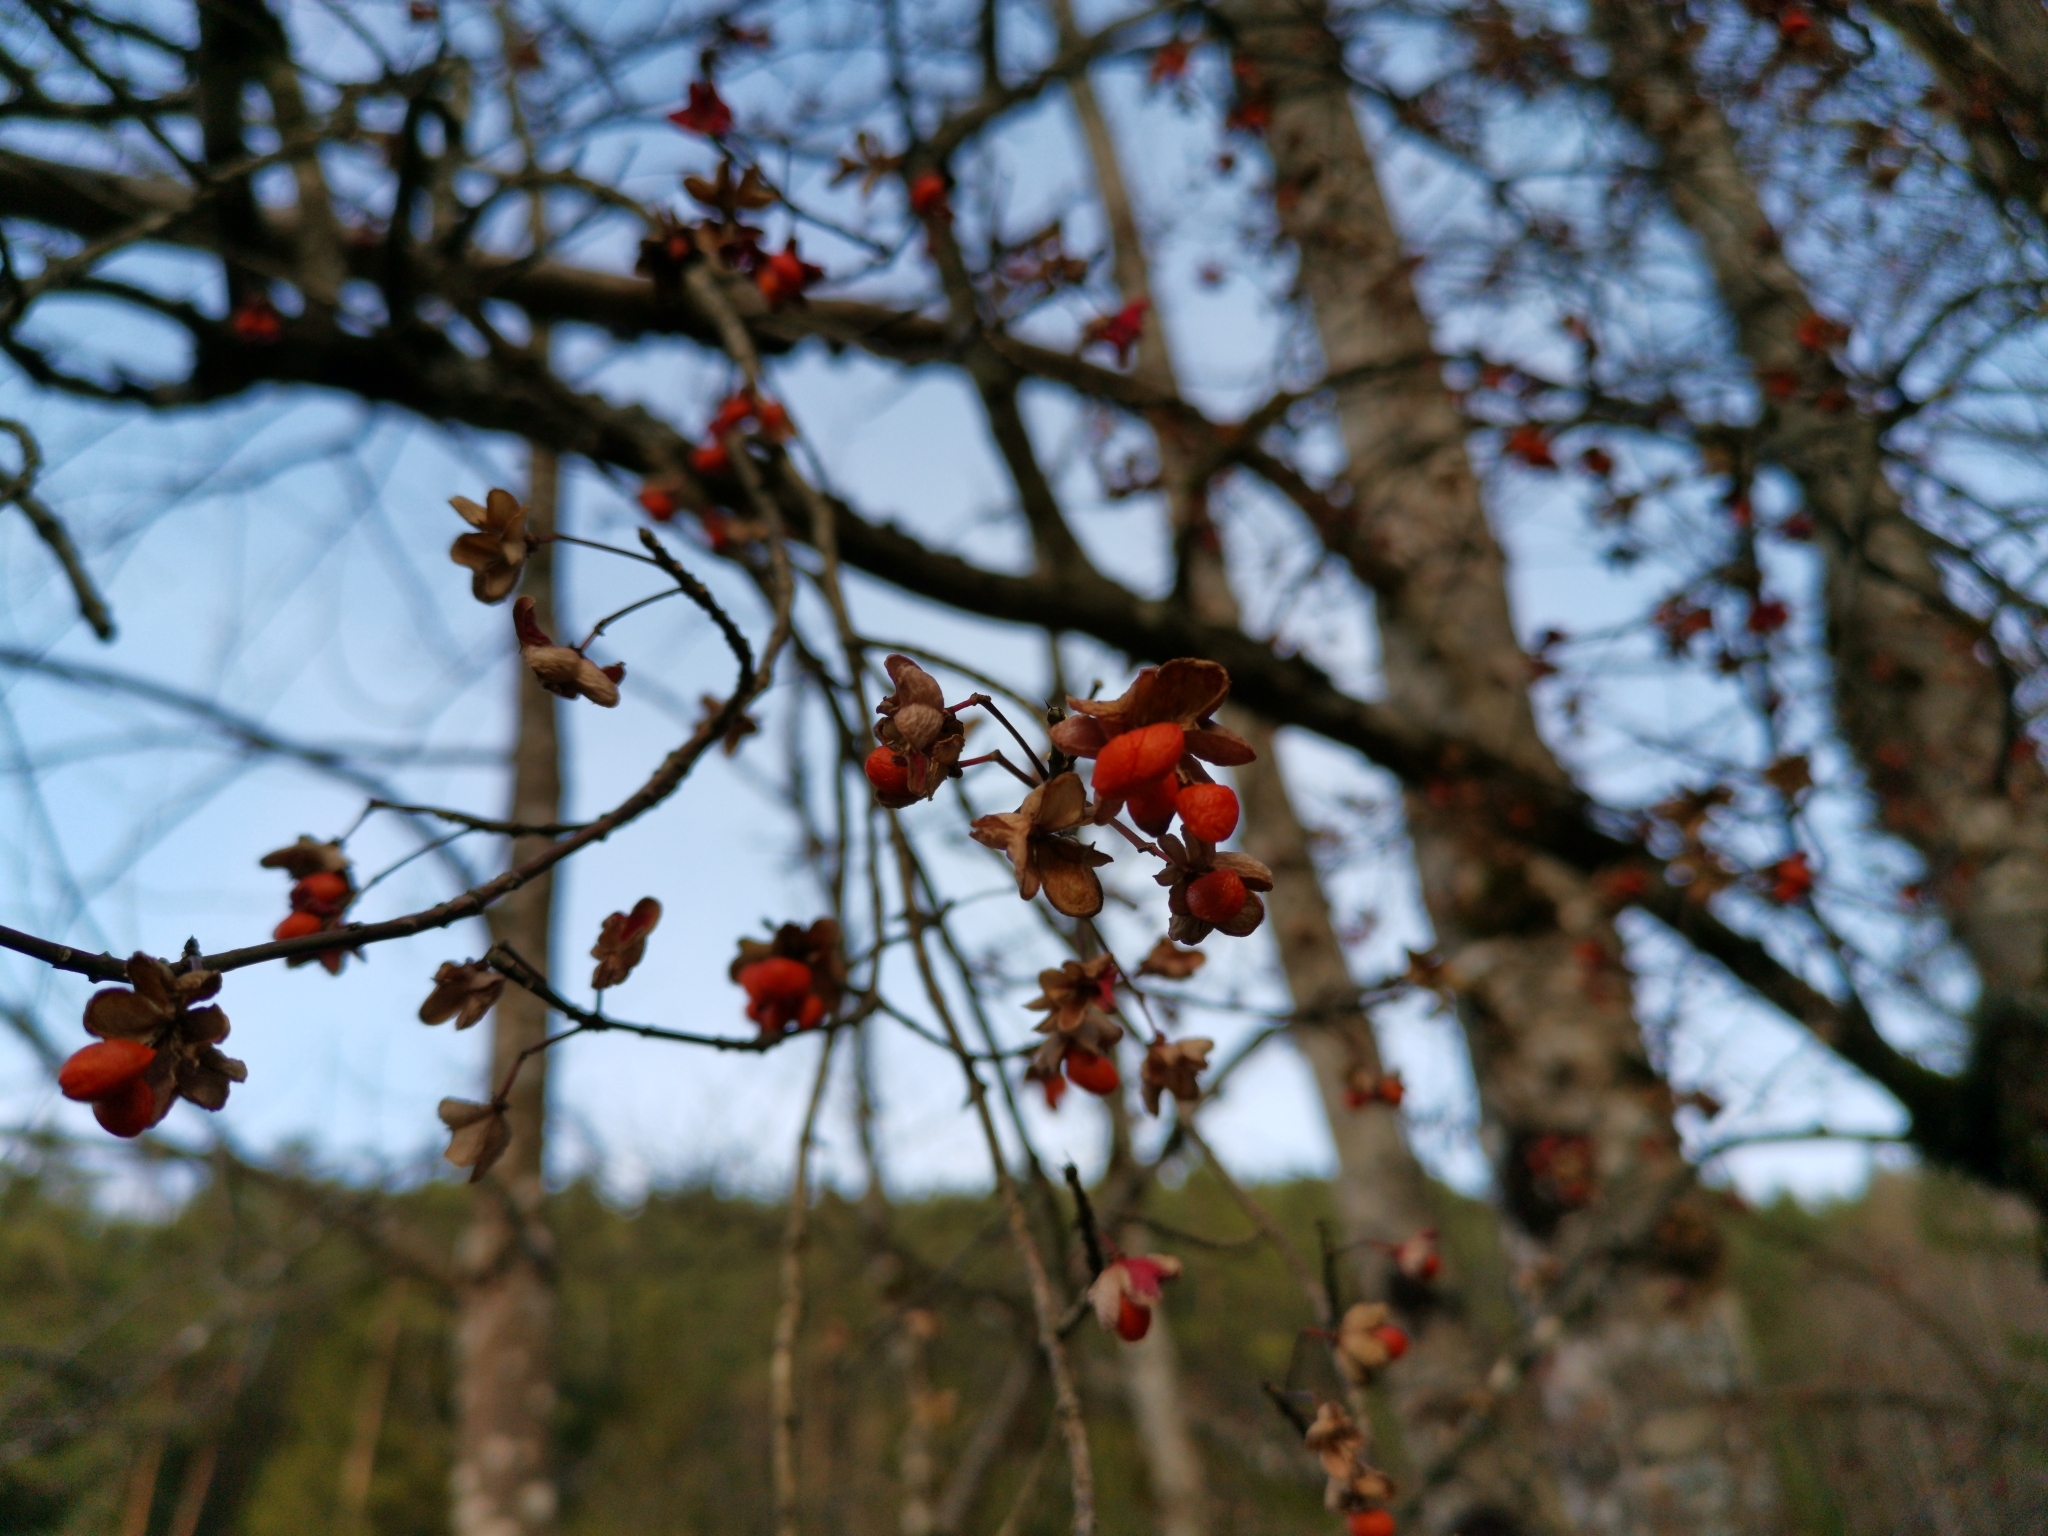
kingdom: Plantae
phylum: Tracheophyta
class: Magnoliopsida
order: Celastrales
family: Celastraceae
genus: Euonymus
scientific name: Euonymus europaeus
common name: Spindle
